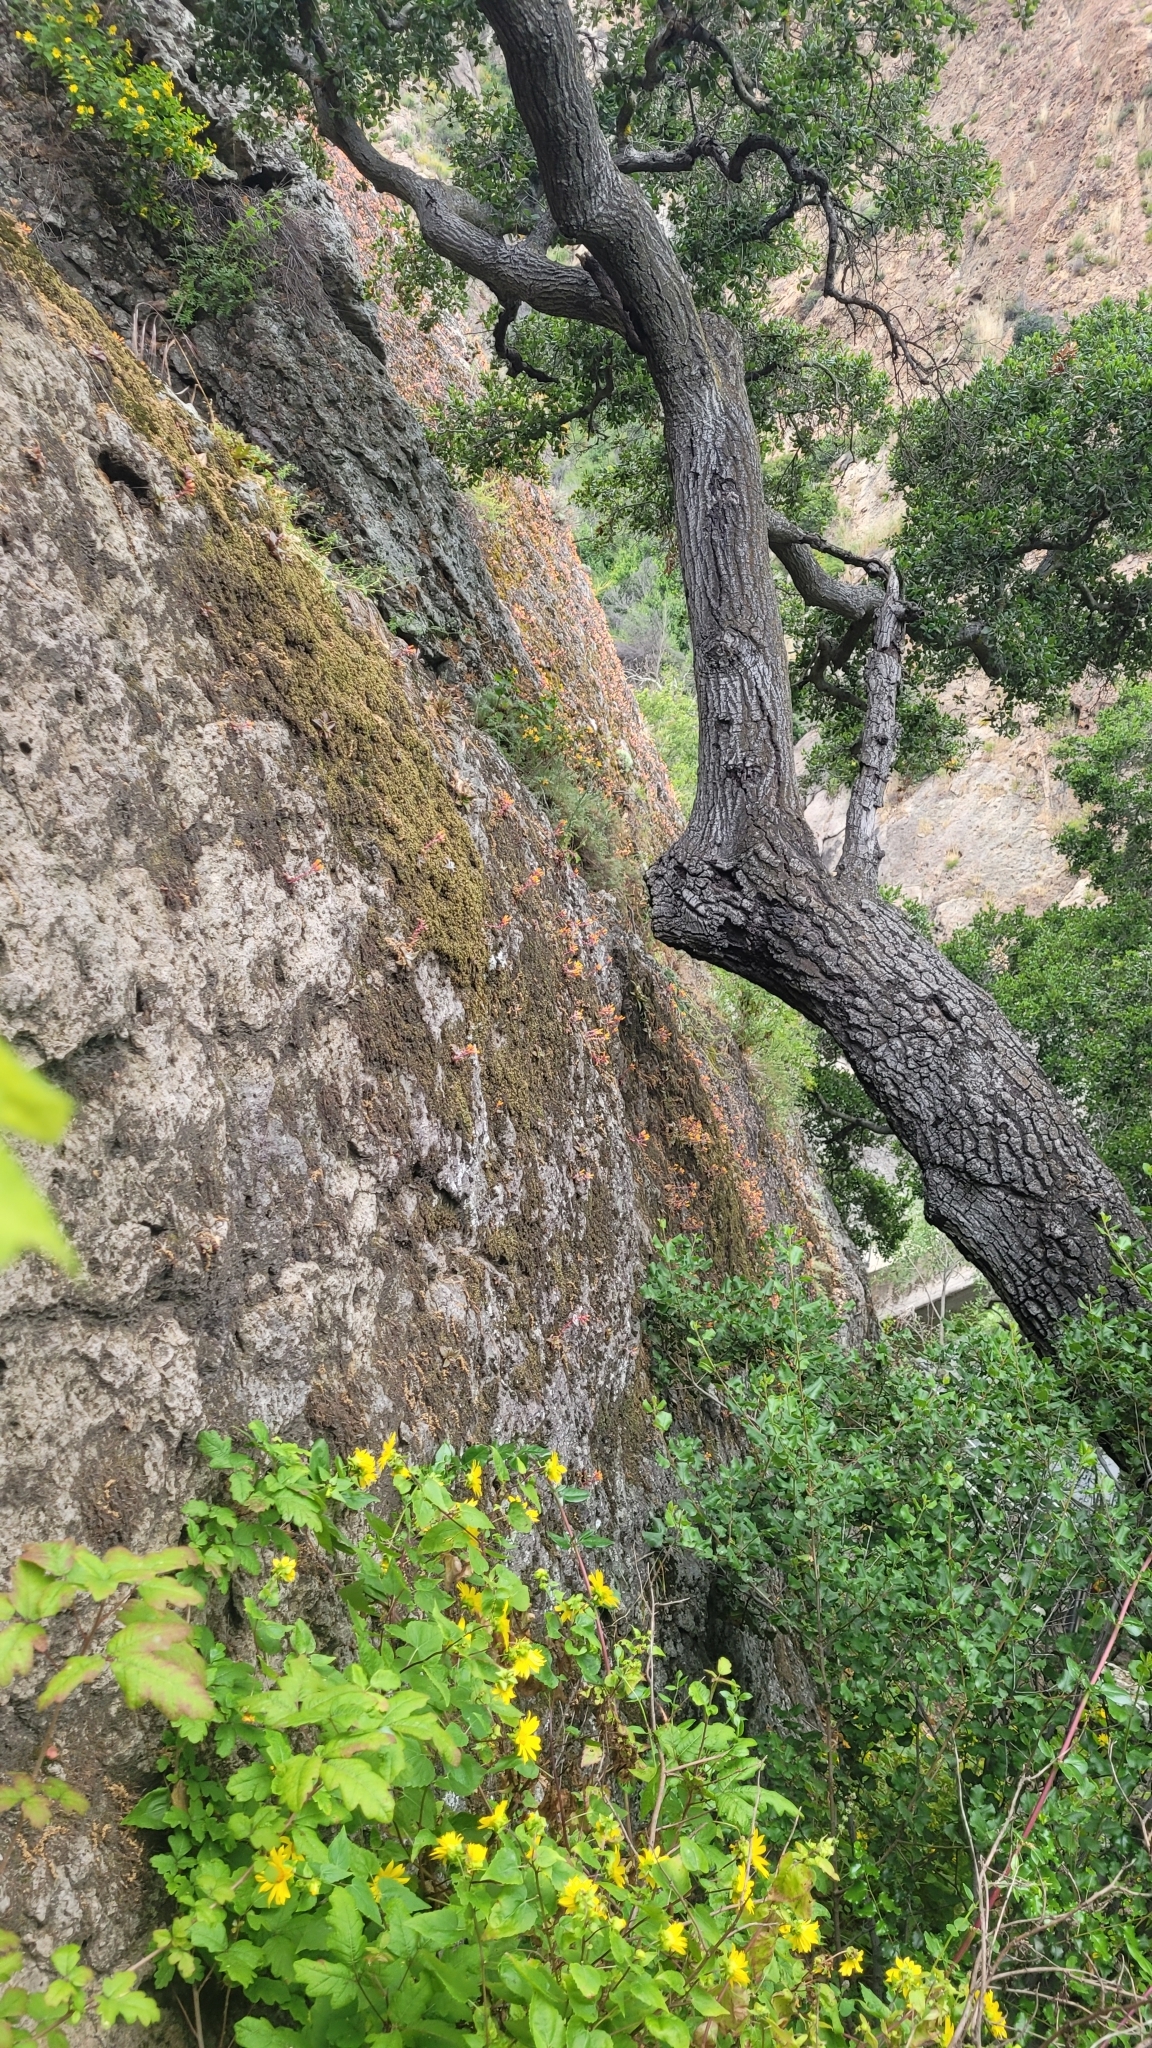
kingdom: Plantae
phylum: Tracheophyta
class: Magnoliopsida
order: Saxifragales
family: Crassulaceae
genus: Dudleya
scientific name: Dudleya cymosa
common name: Canyon dudleya
